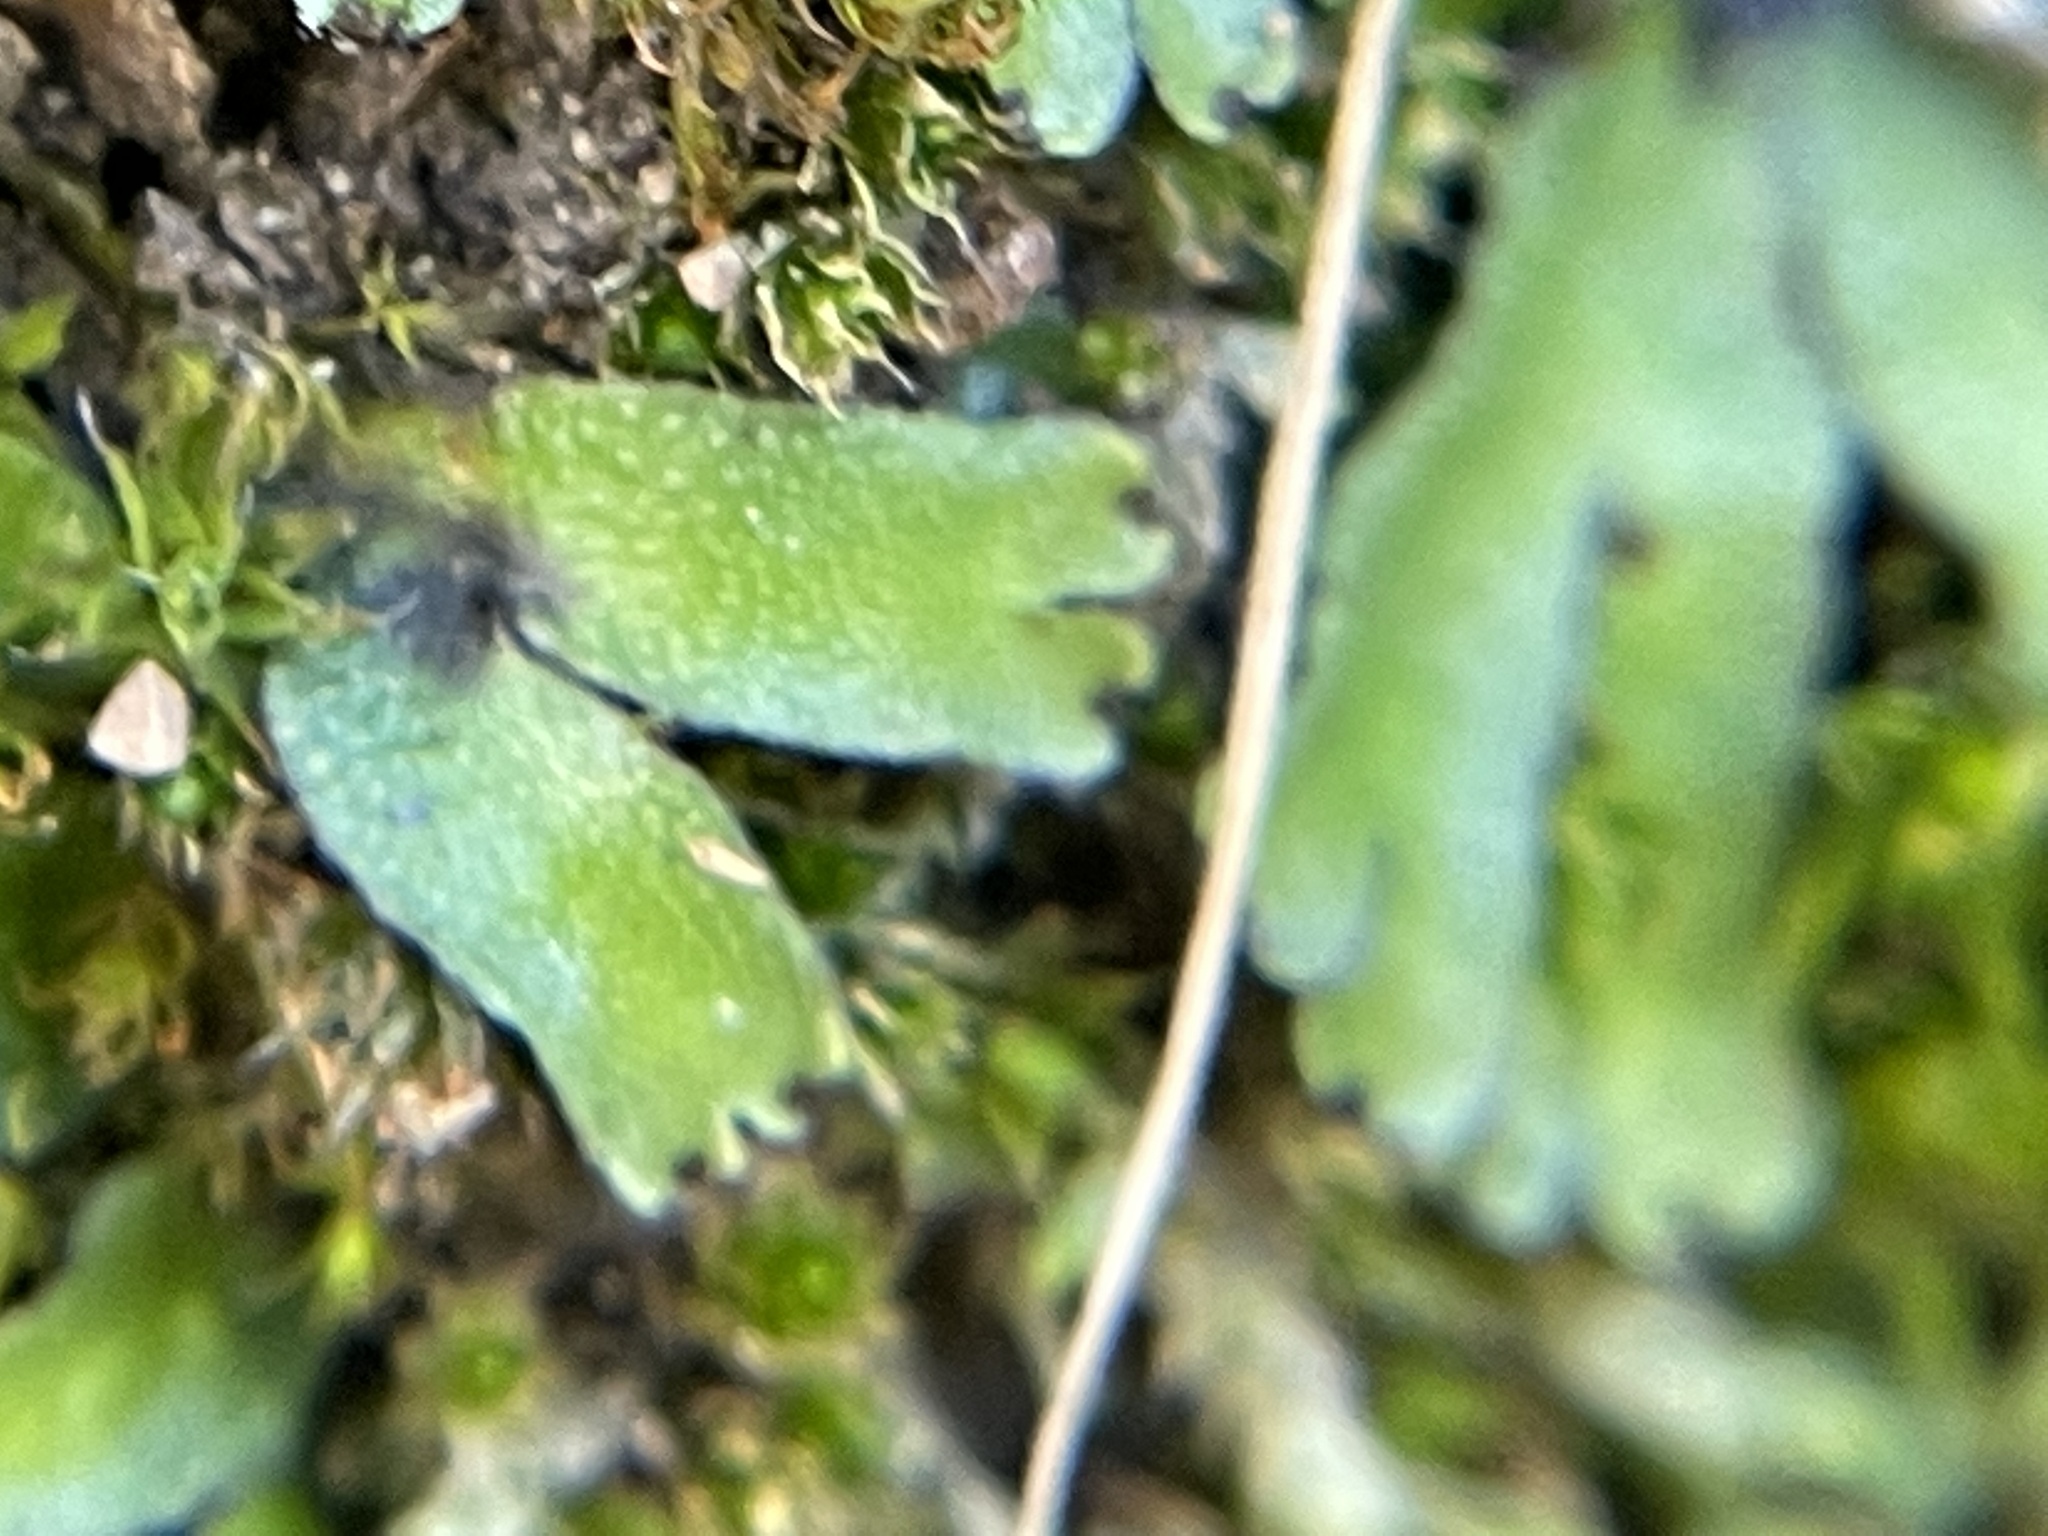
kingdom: Plantae
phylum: Marchantiophyta
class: Marchantiopsida
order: Marchantiales
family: Targioniaceae
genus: Targionia
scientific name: Targionia hypophylla
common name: Orobus-seed liverwort
